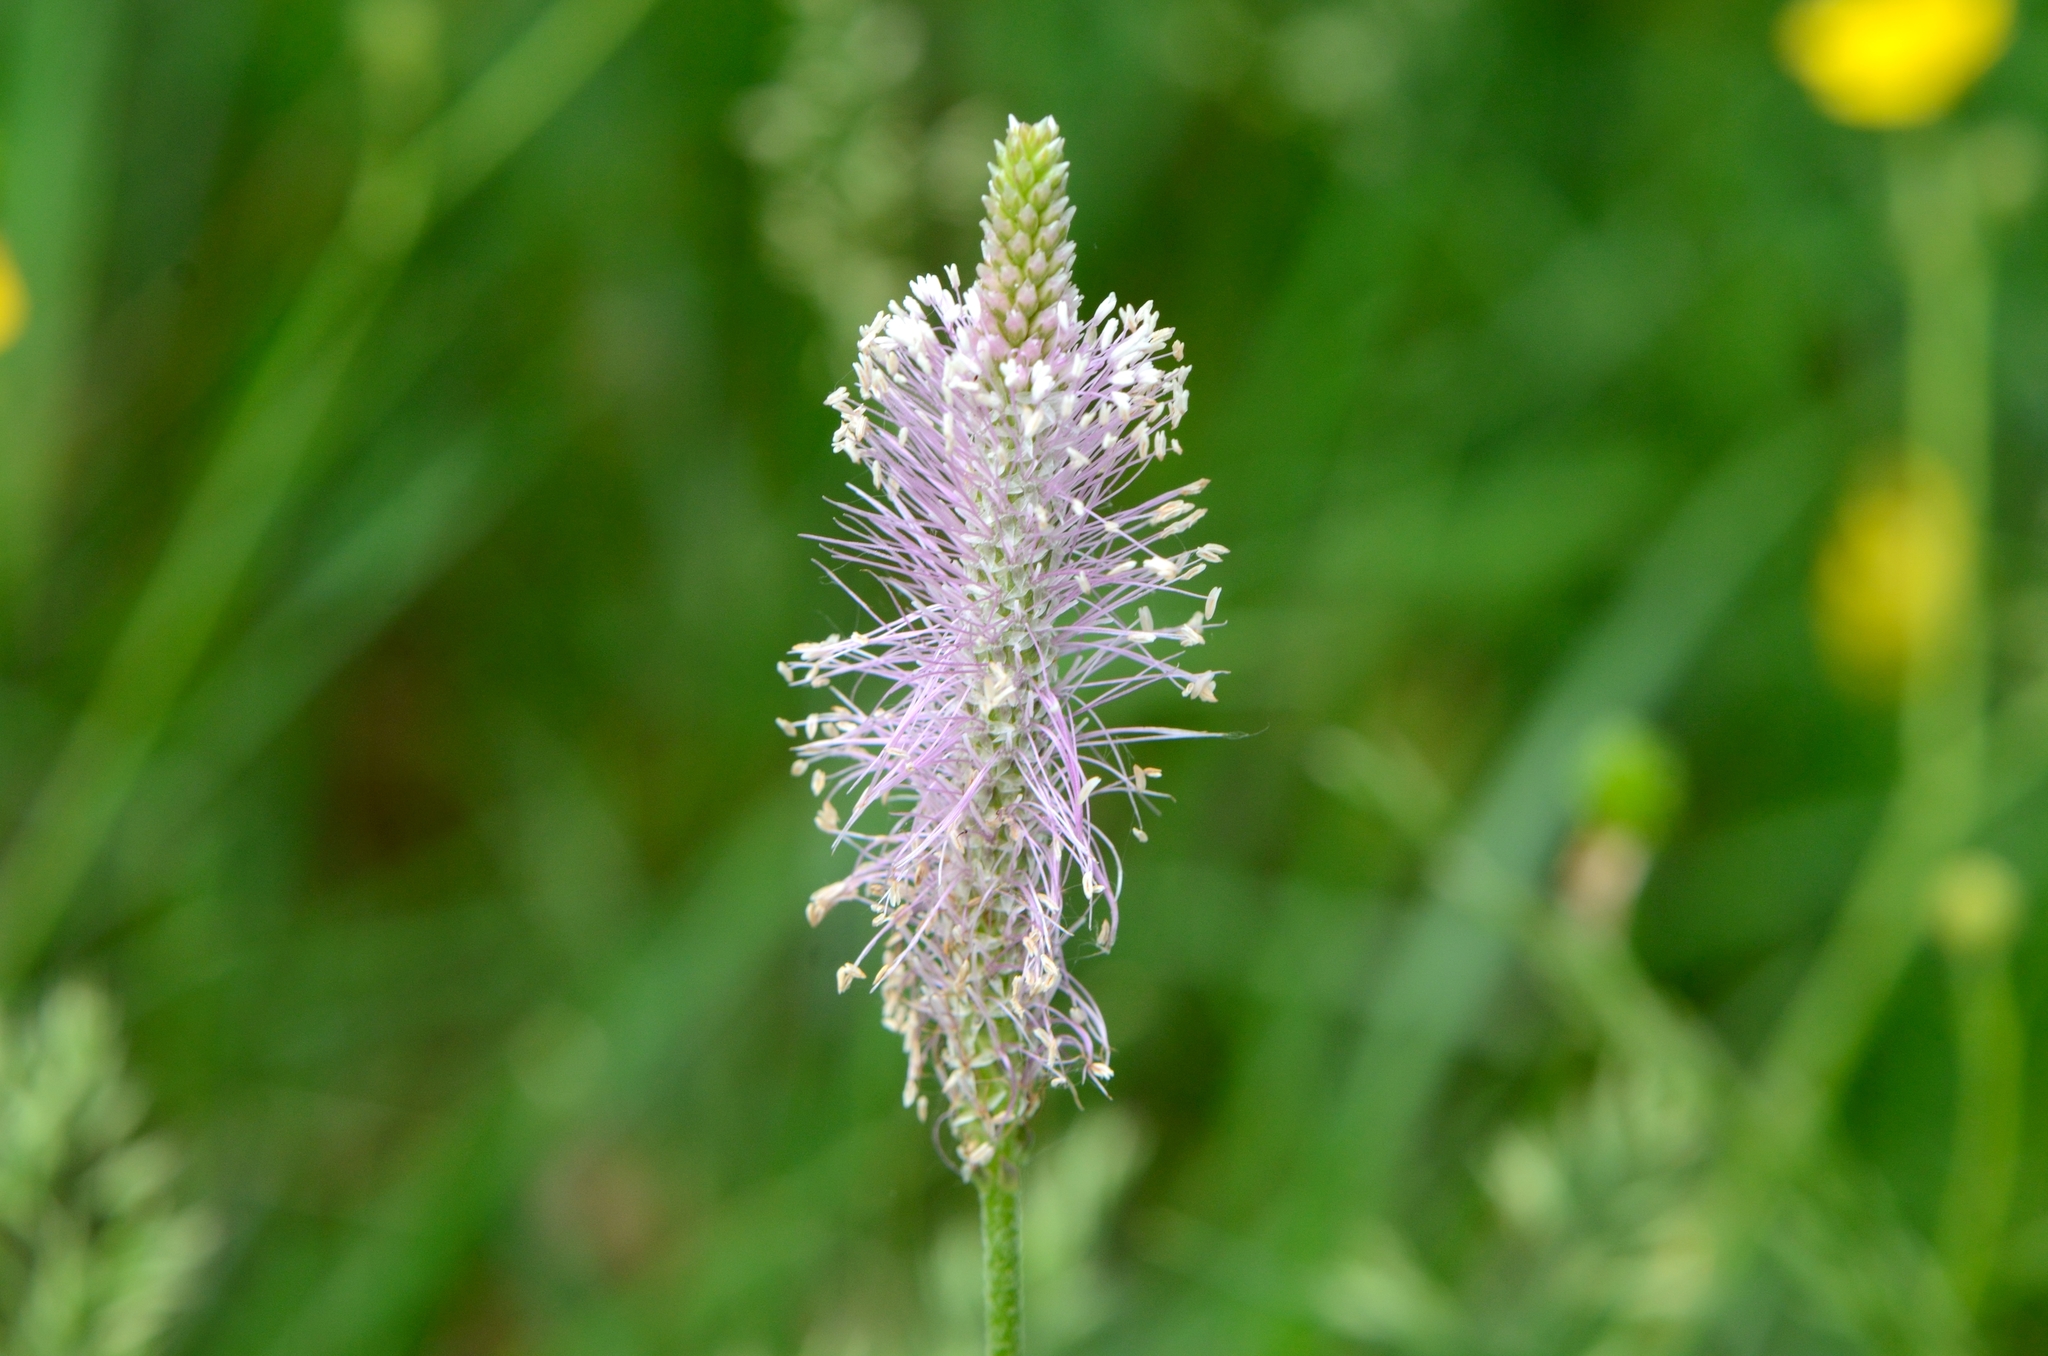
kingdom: Plantae
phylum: Tracheophyta
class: Magnoliopsida
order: Lamiales
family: Plantaginaceae
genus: Plantago
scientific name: Plantago media
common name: Hoary plantain
